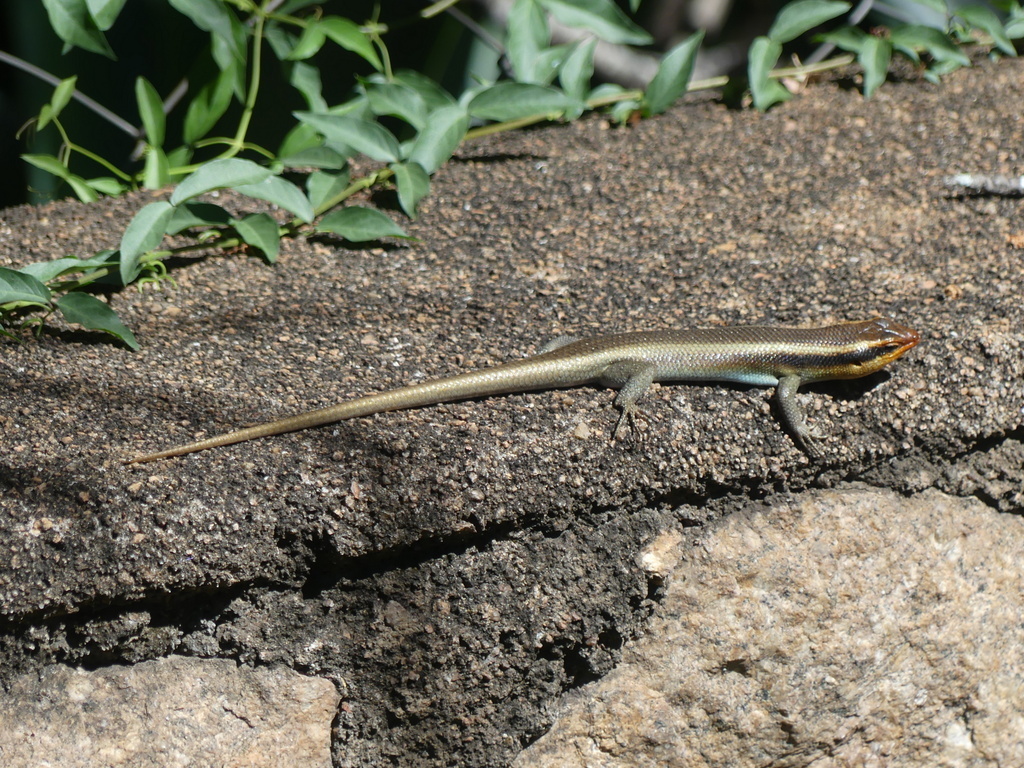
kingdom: Animalia
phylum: Chordata
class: Squamata
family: Scincidae
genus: Trachylepis
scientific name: Trachylepis wahlbergii
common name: Wahlberg’s striped skink
